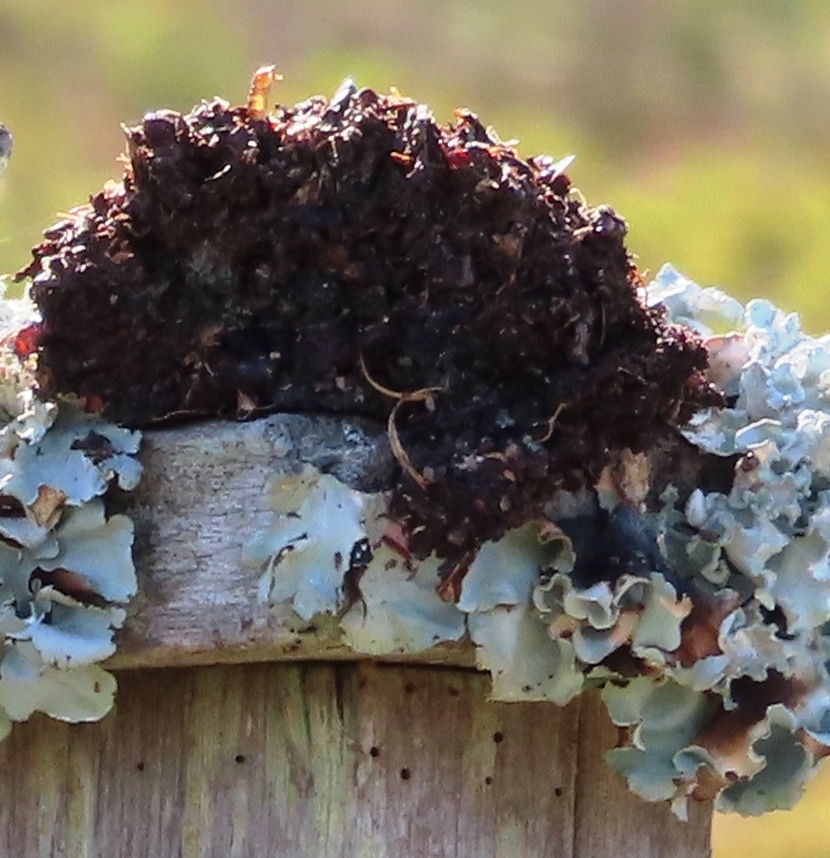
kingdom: Animalia
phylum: Chordata
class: Mammalia
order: Primates
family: Cercopithecidae
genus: Papio
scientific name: Papio ursinus
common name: Chacma baboon
